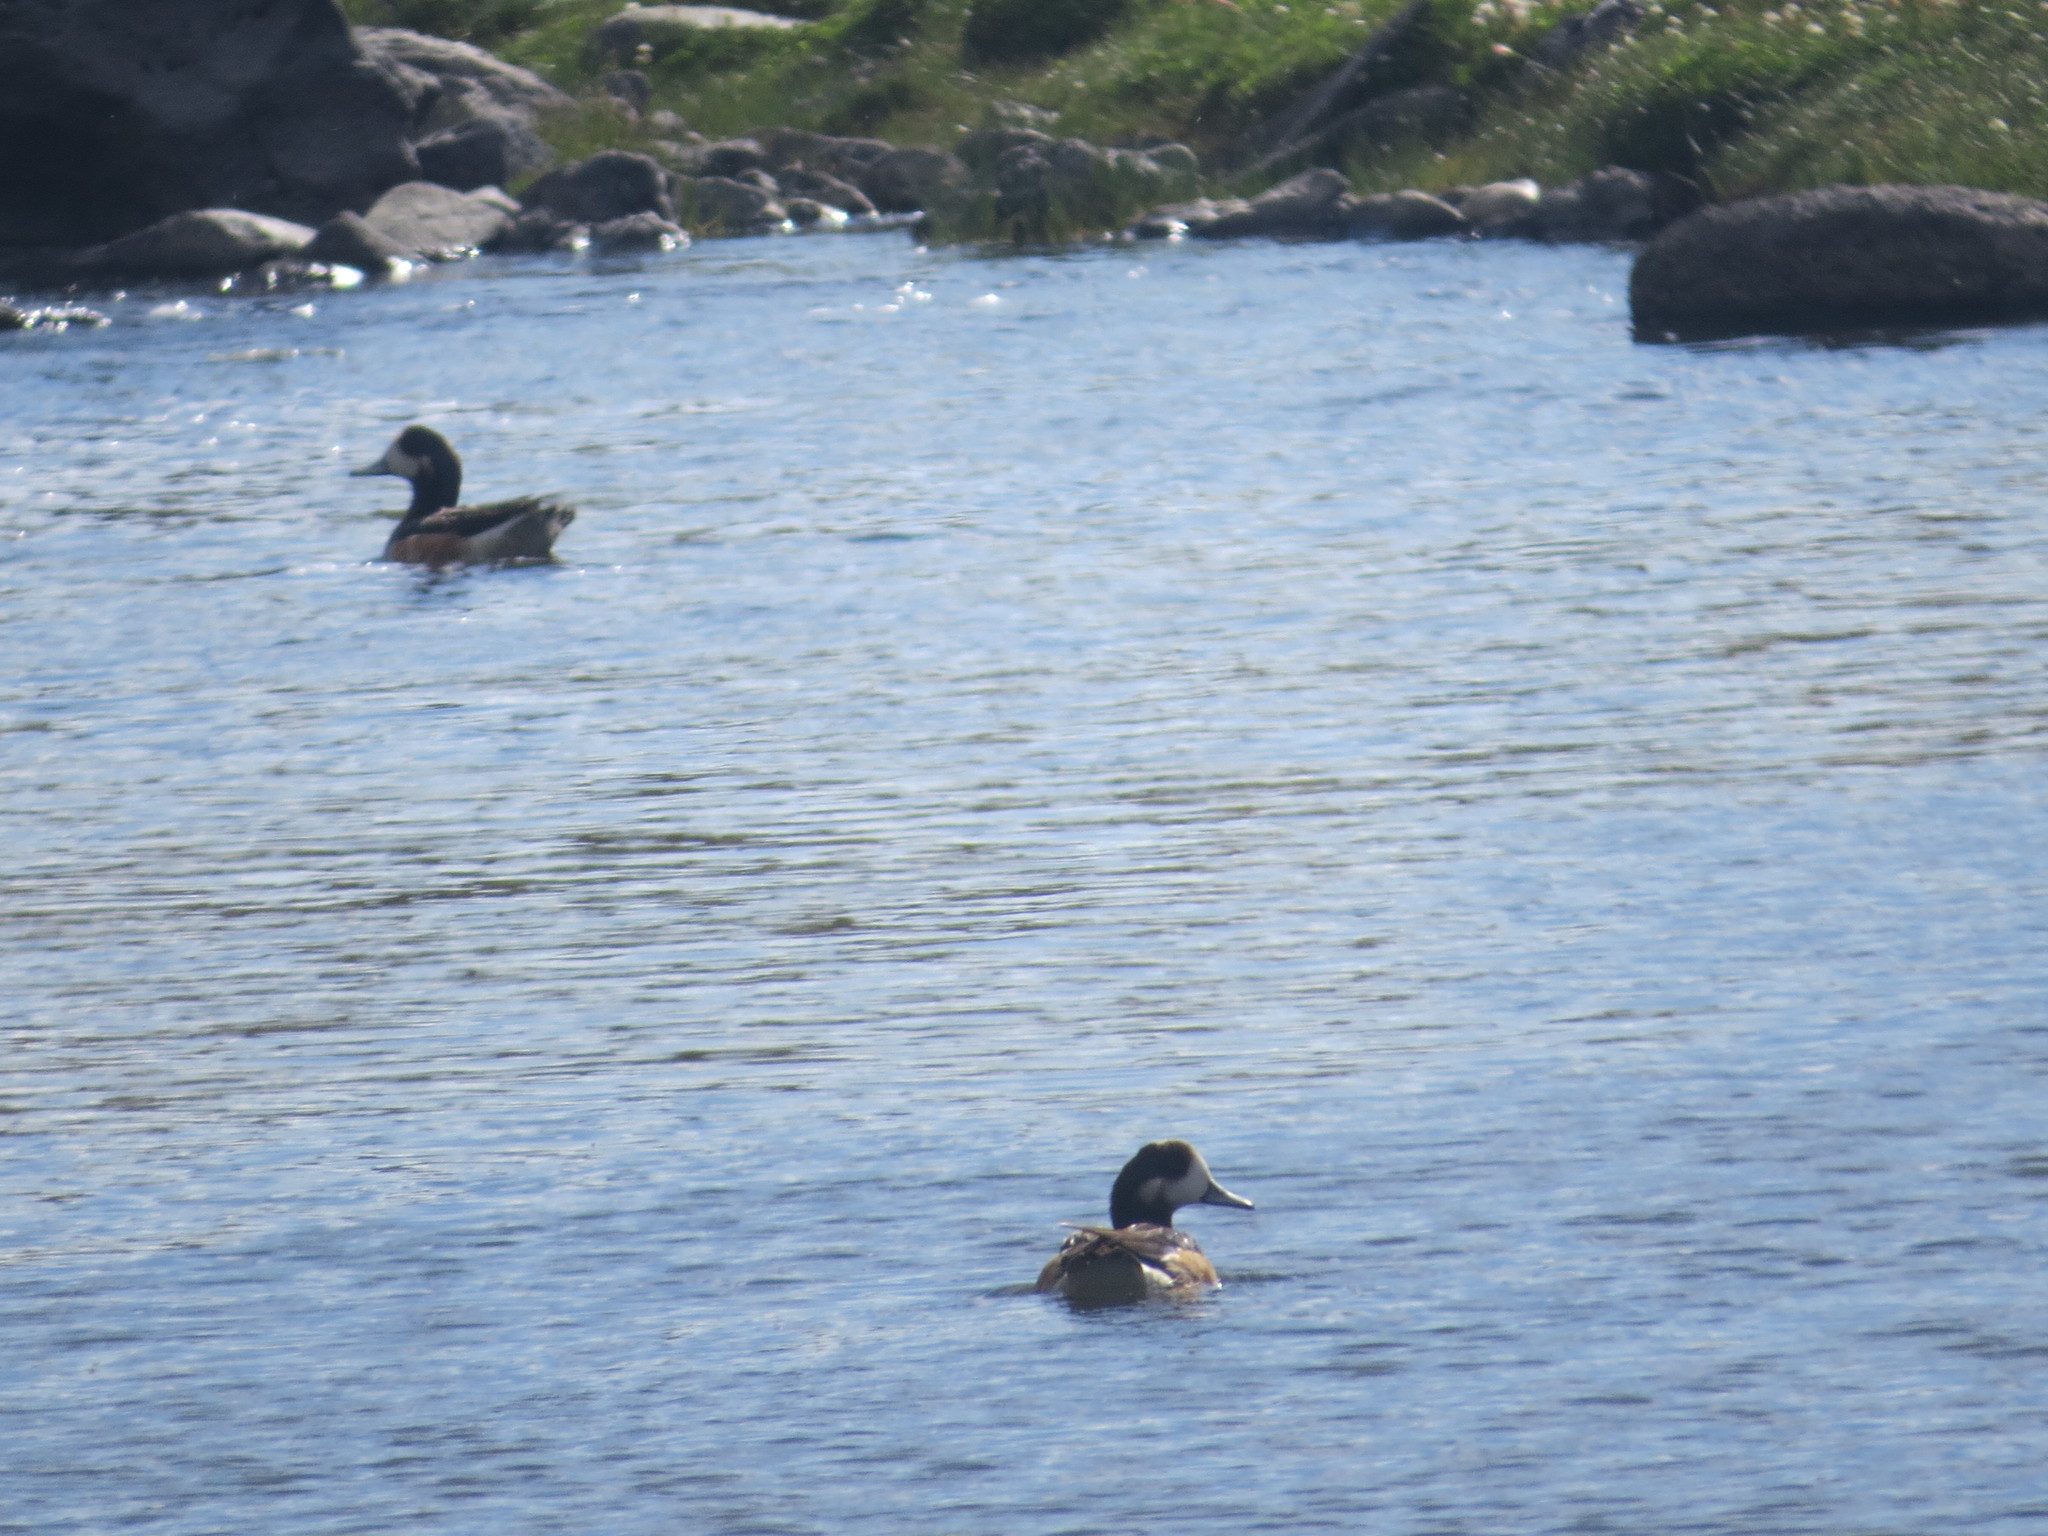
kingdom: Animalia
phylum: Chordata
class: Aves
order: Anseriformes
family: Anatidae
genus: Mareca
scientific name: Mareca sibilatrix
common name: Chiloe wigeon
